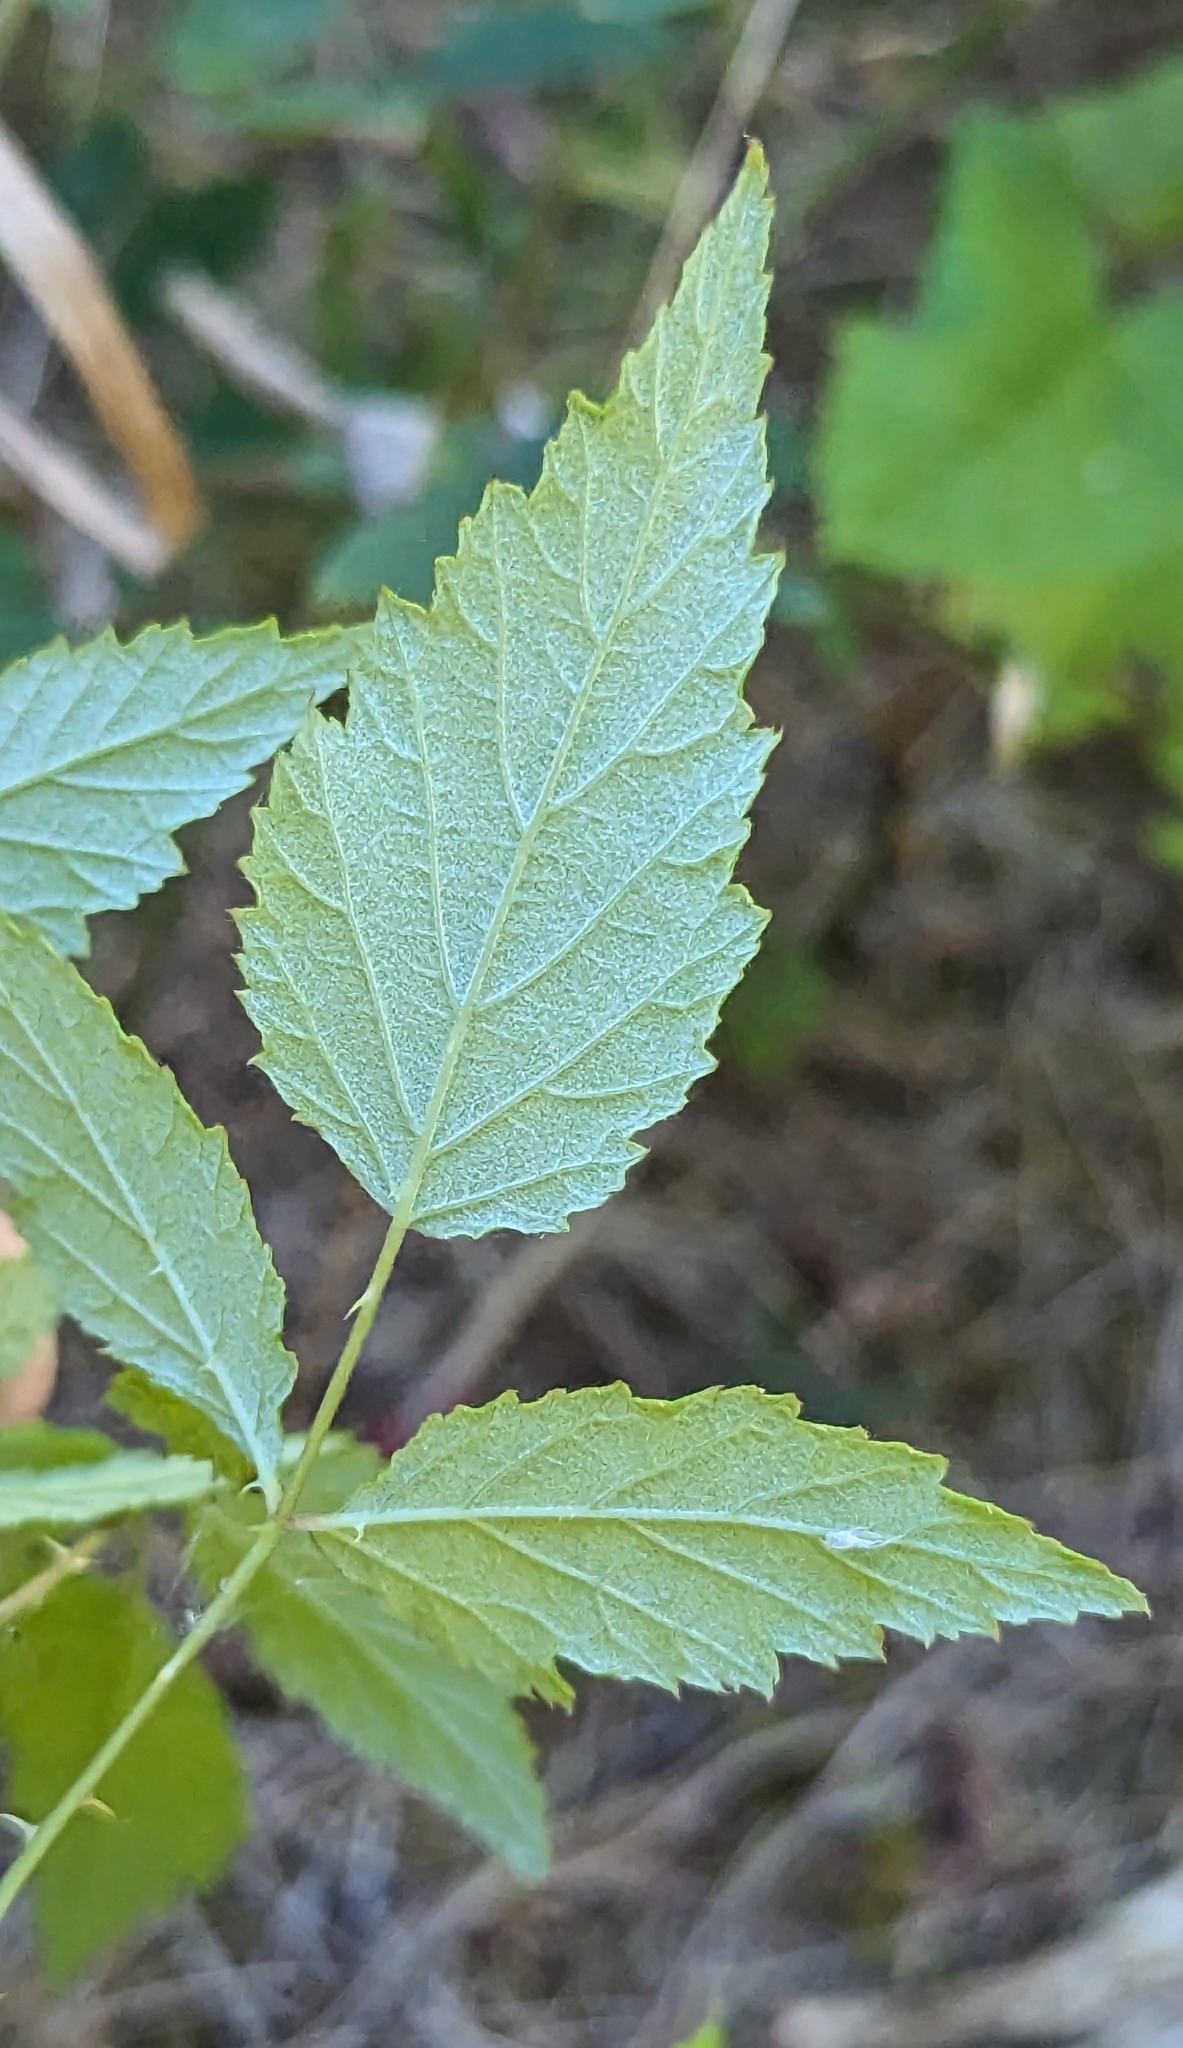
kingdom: Plantae
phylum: Tracheophyta
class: Magnoliopsida
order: Rosales
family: Rosaceae
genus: Rubus
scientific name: Rubus leucodermis
